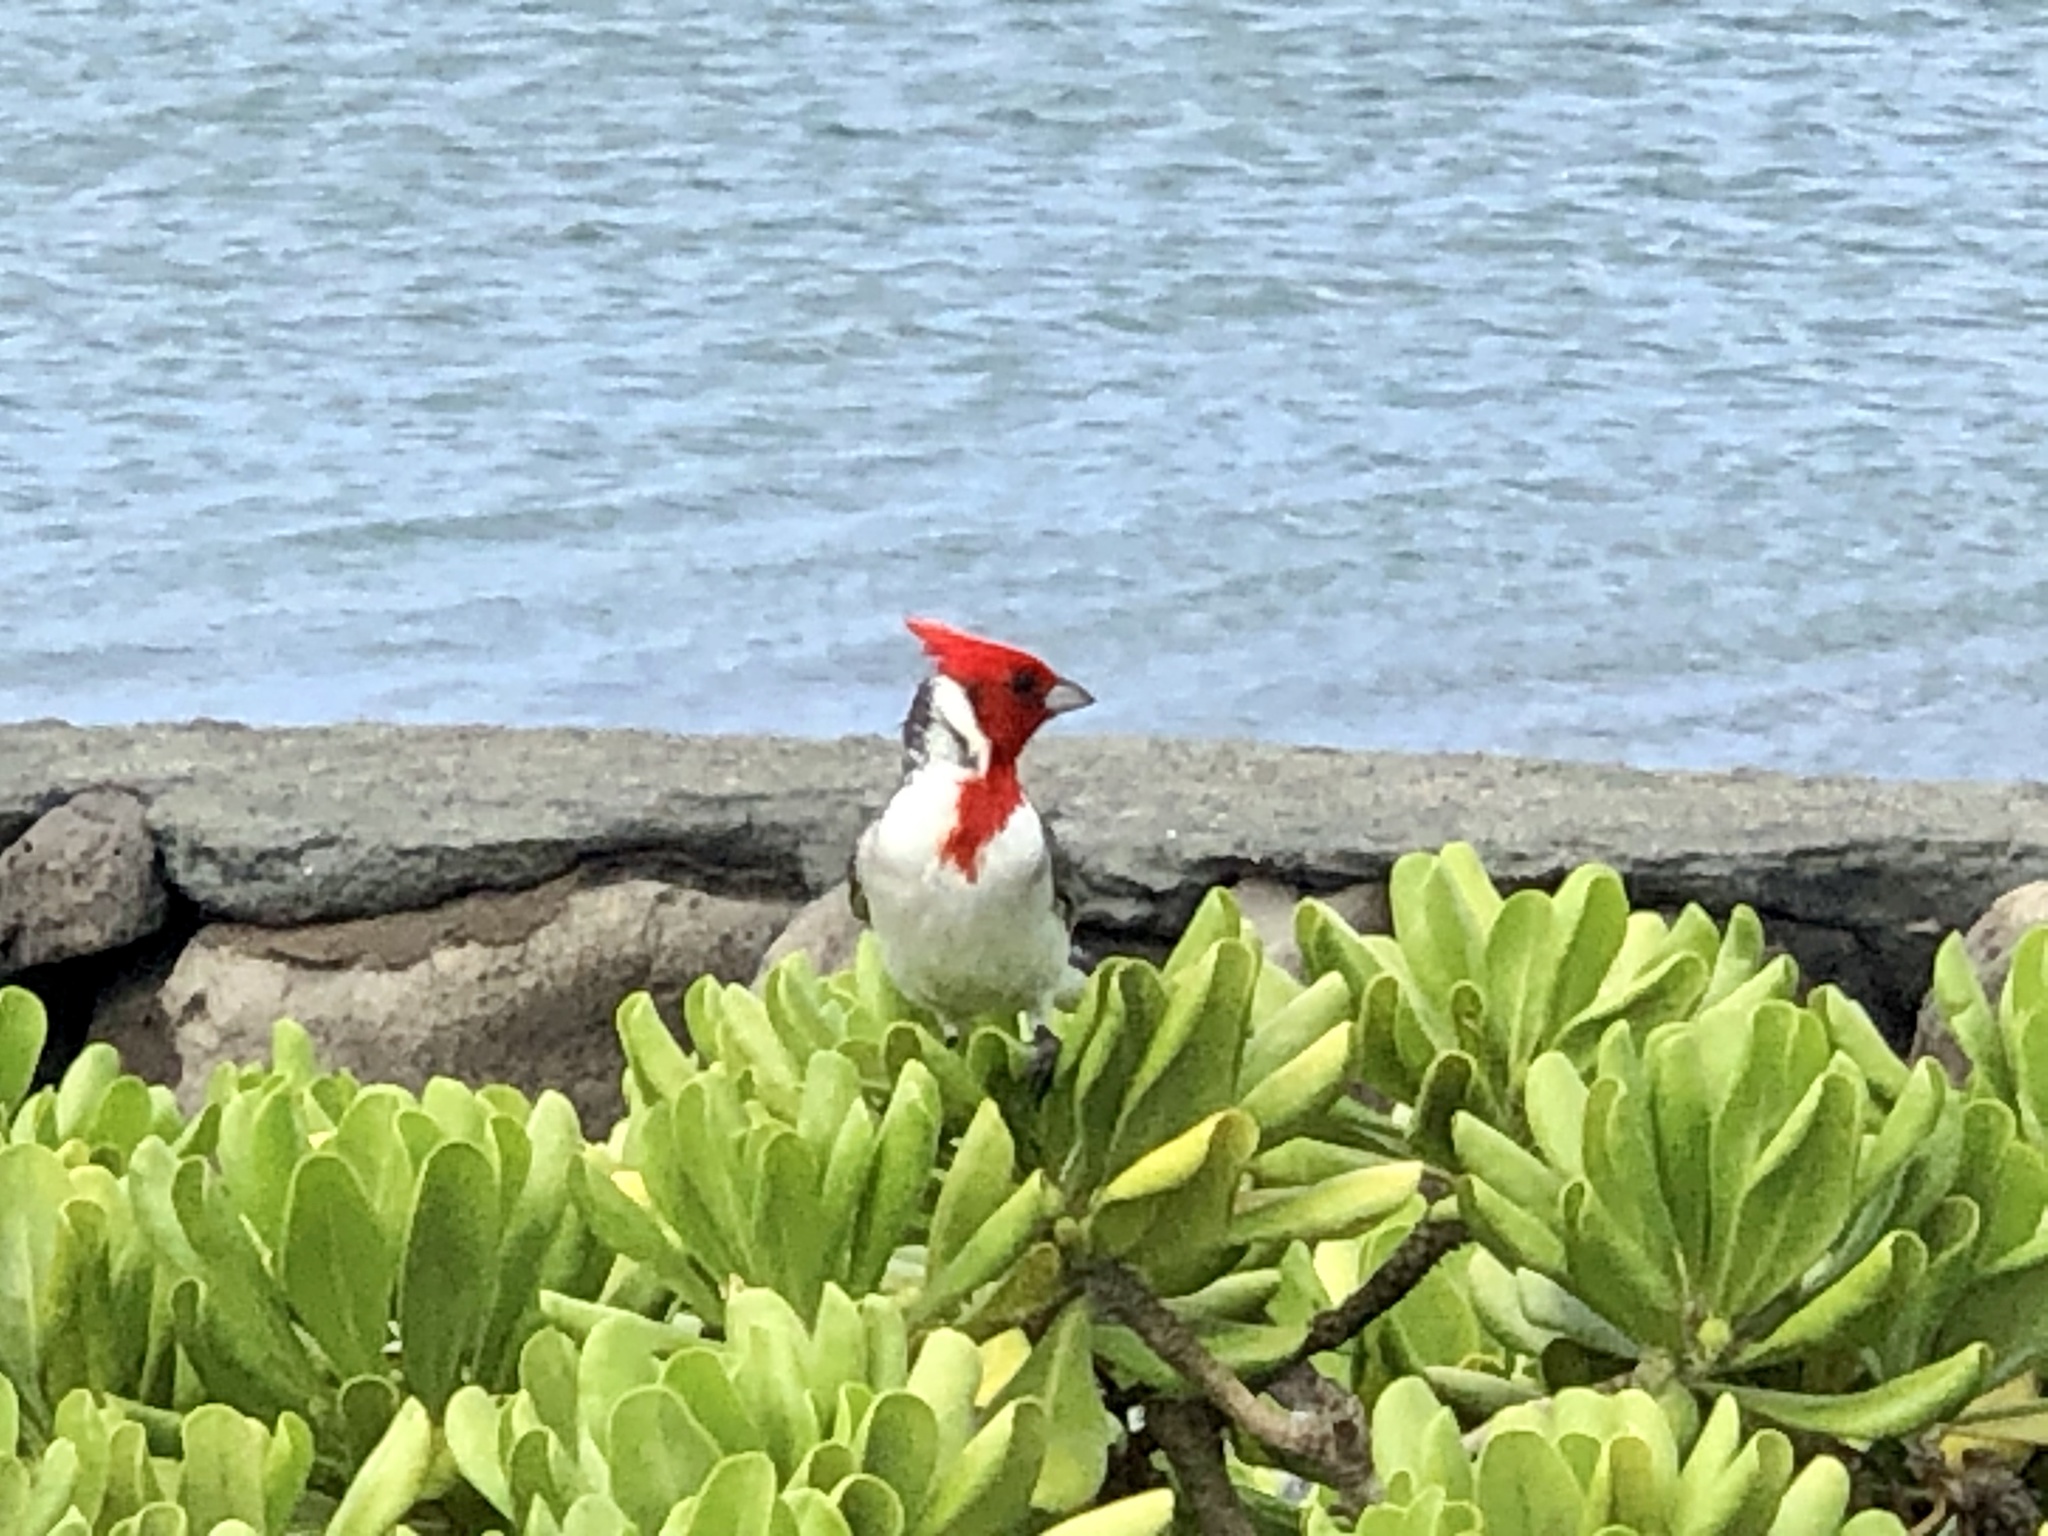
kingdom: Animalia
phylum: Chordata
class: Aves
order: Passeriformes
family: Thraupidae
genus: Paroaria
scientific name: Paroaria coronata
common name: Red-crested cardinal
